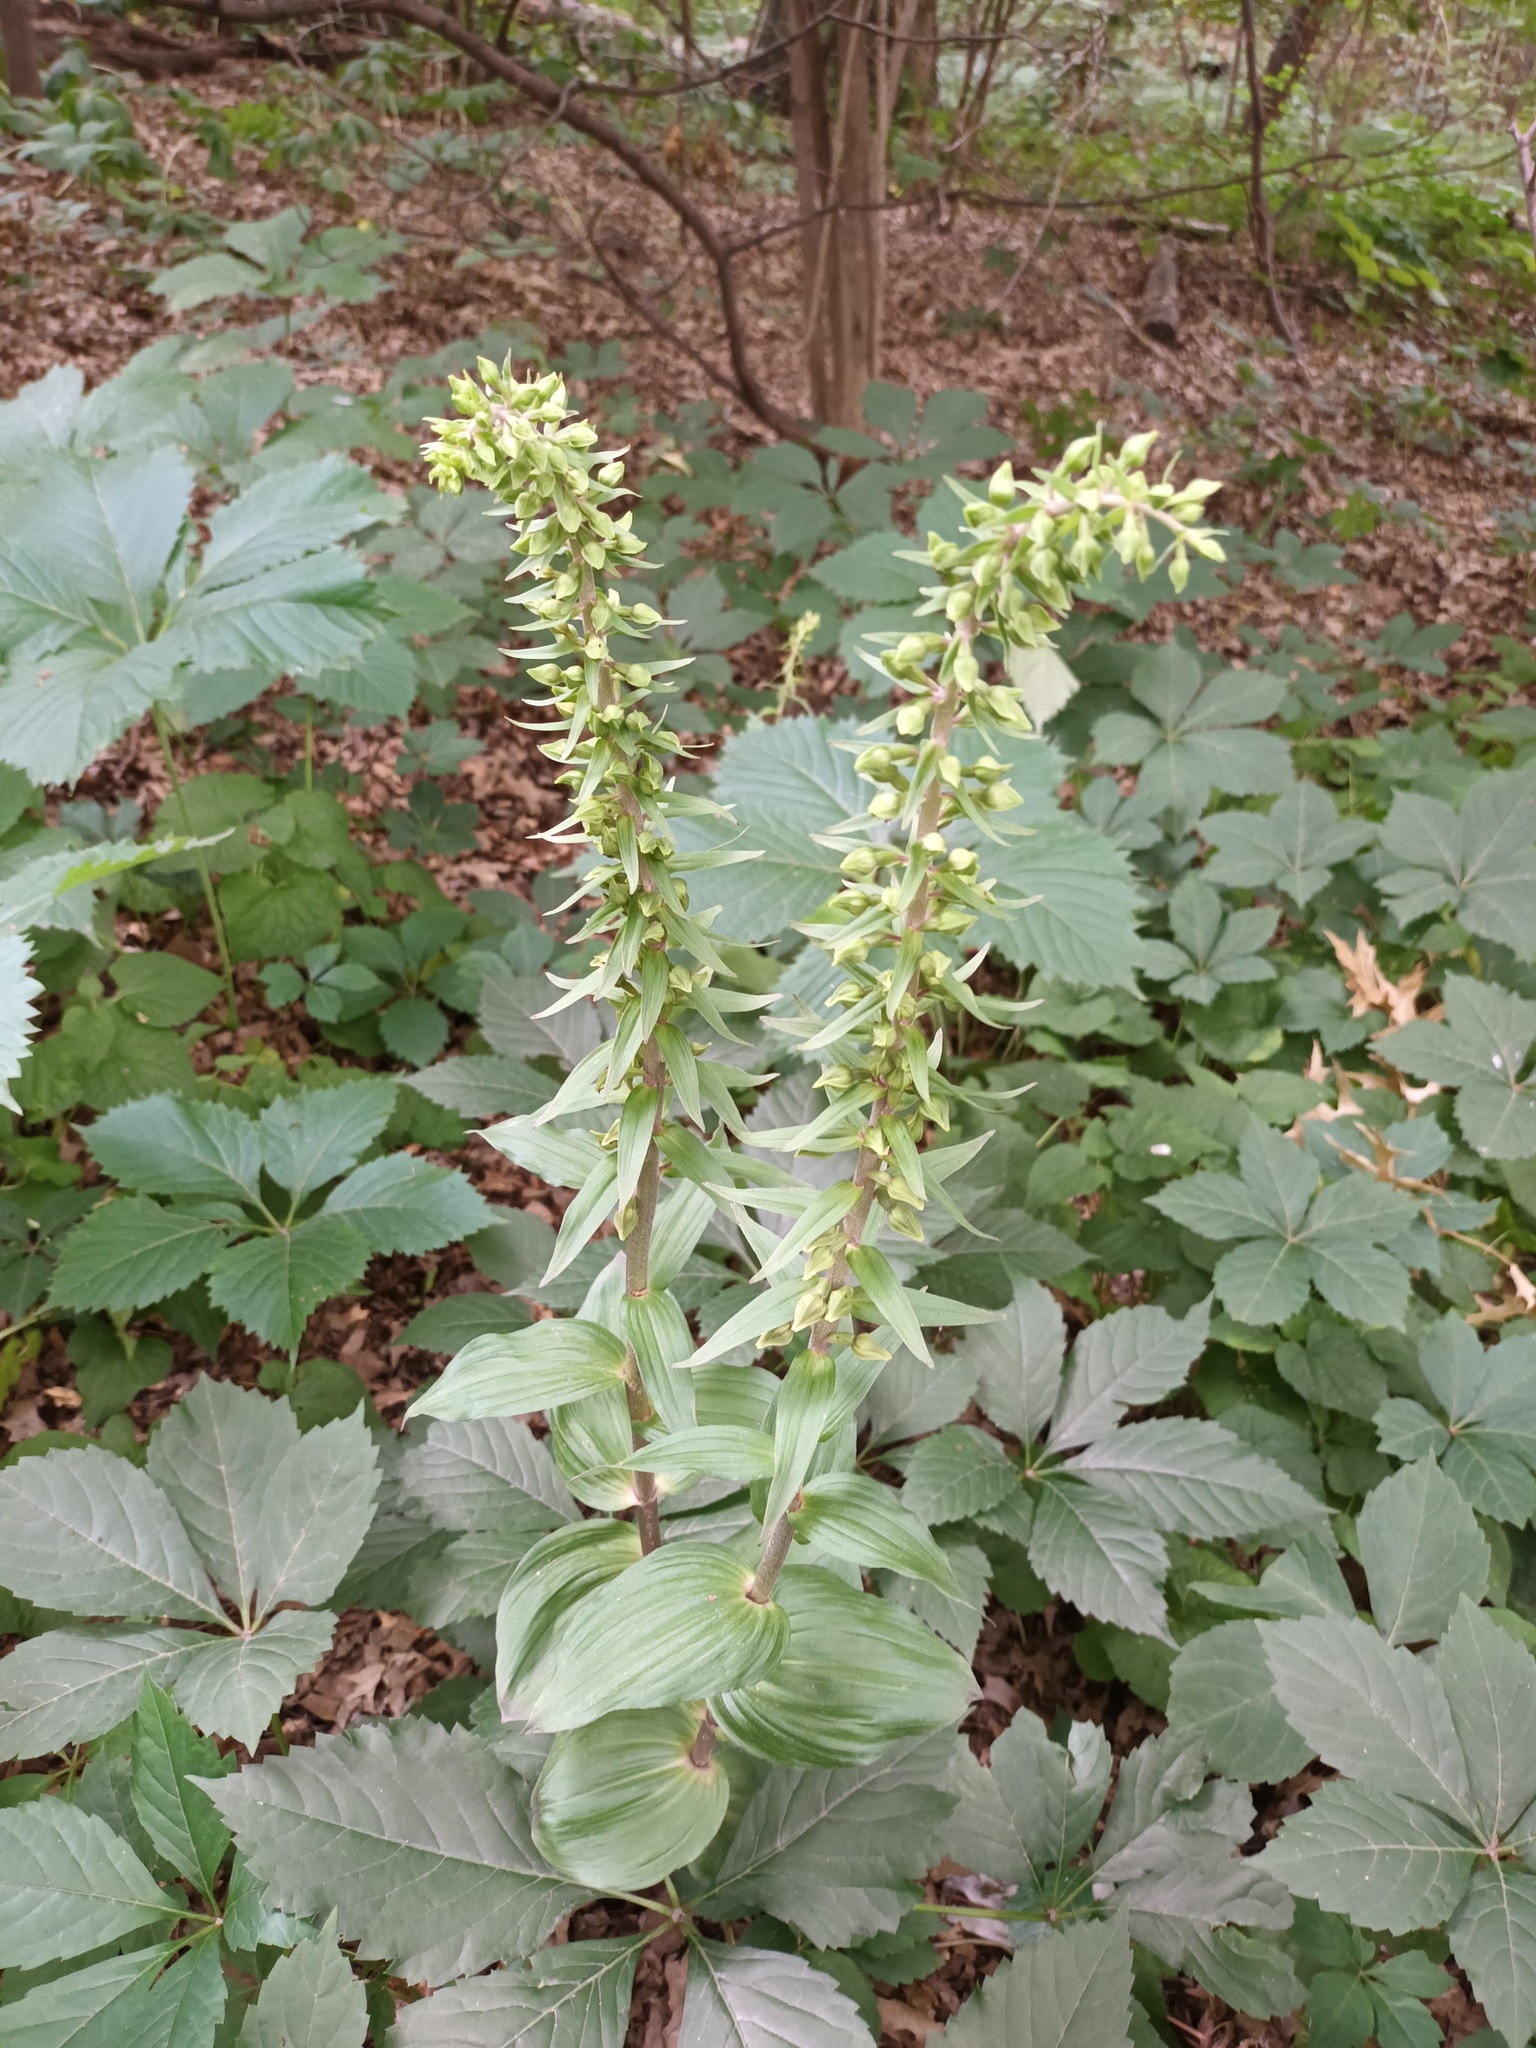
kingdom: Plantae
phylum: Tracheophyta
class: Liliopsida
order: Asparagales
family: Orchidaceae
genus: Epipactis
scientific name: Epipactis helleborine
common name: Broad-leaved helleborine
